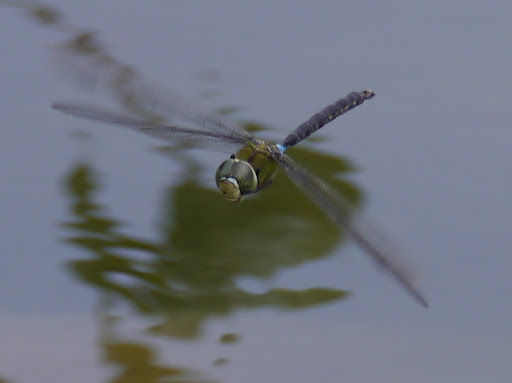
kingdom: Animalia
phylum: Arthropoda
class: Insecta
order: Odonata
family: Aeshnidae
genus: Anax
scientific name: Anax strenuus
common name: Giant hawaiian darner
